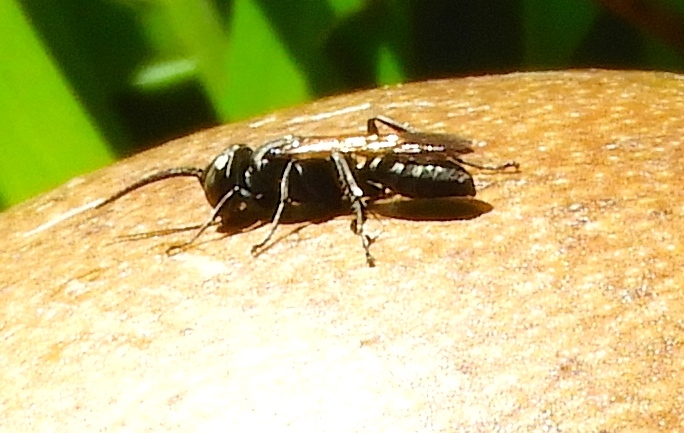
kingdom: Animalia
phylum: Arthropoda
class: Insecta
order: Hymenoptera
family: Crabronidae
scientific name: Crabronidae
